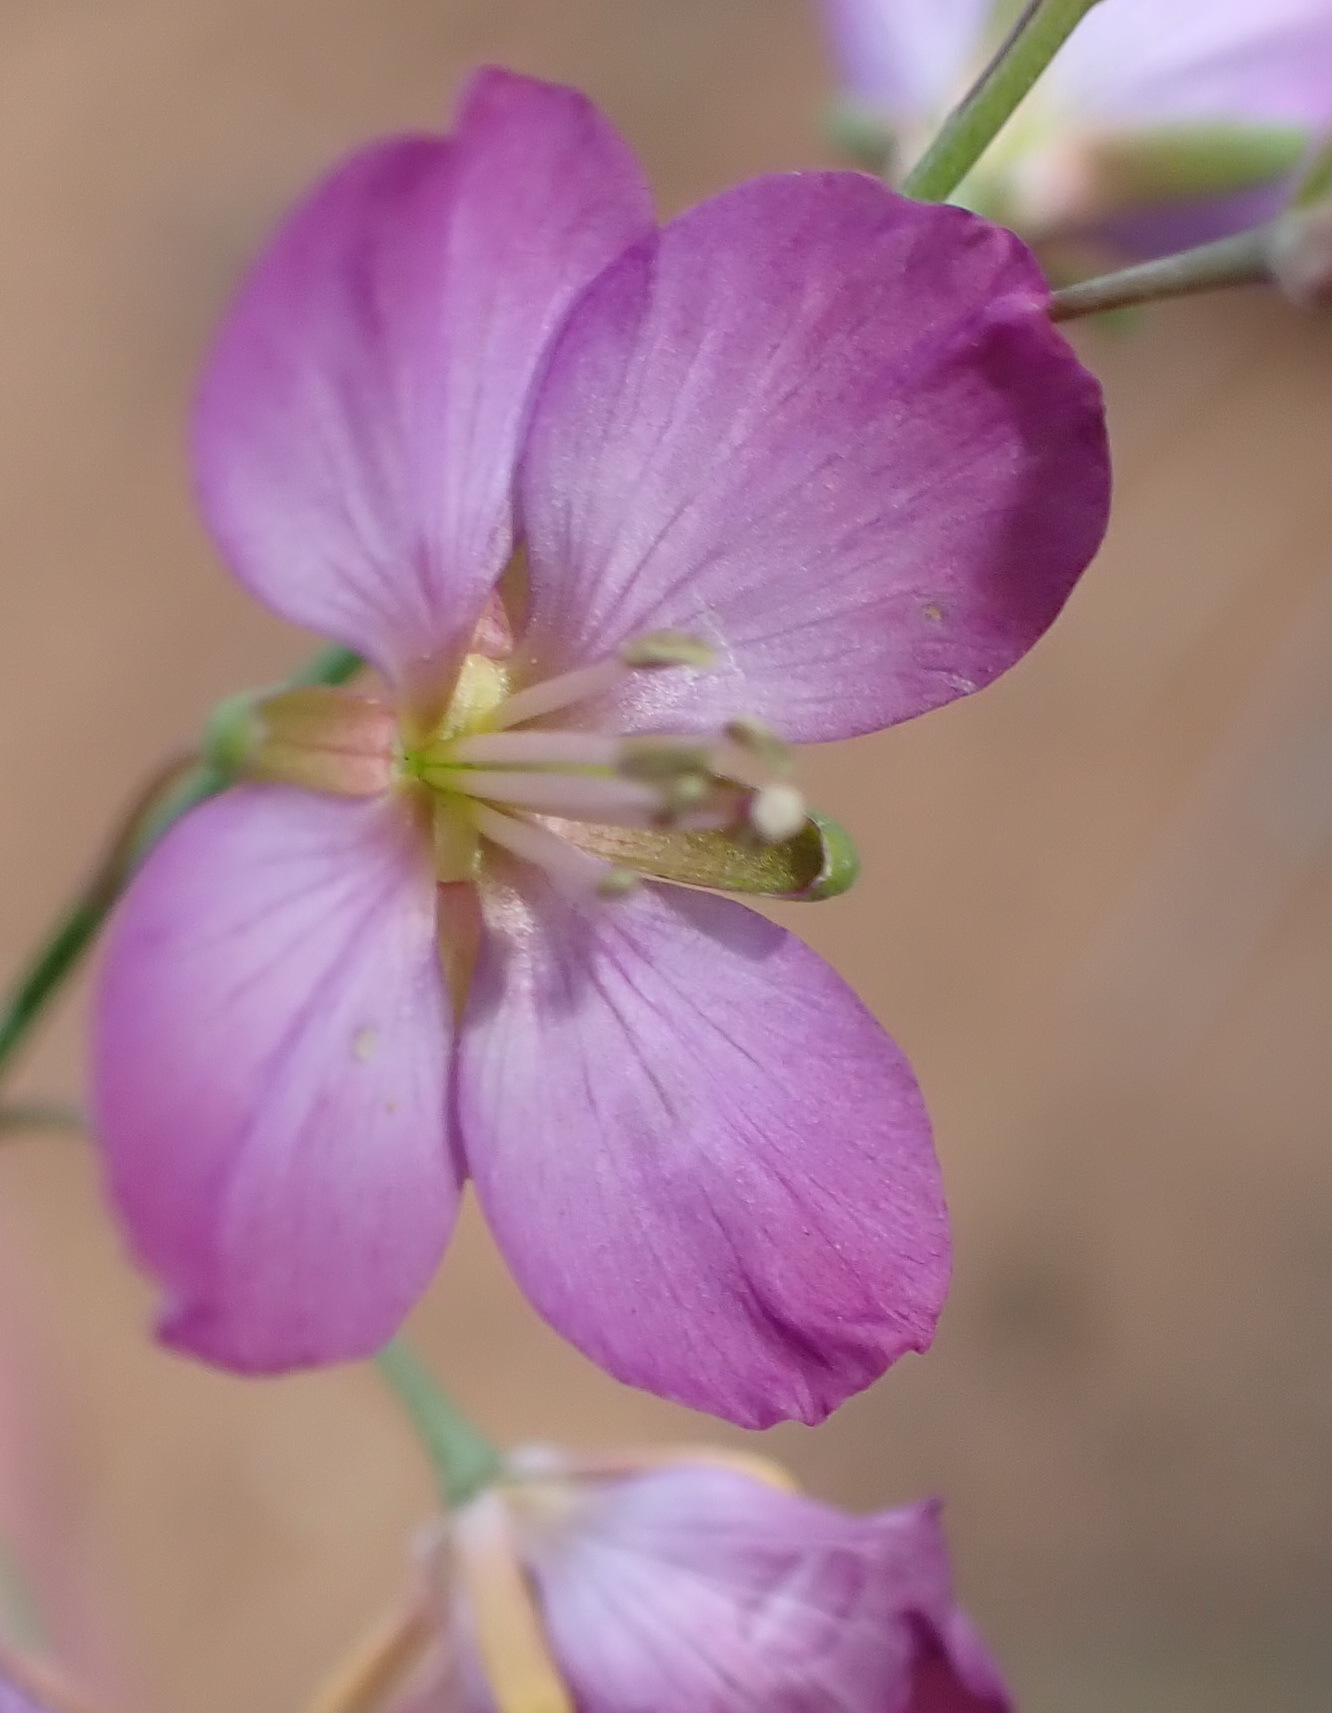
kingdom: Plantae
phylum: Tracheophyta
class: Magnoliopsida
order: Brassicales
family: Brassicaceae
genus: Heliophila
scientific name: Heliophila linearis
